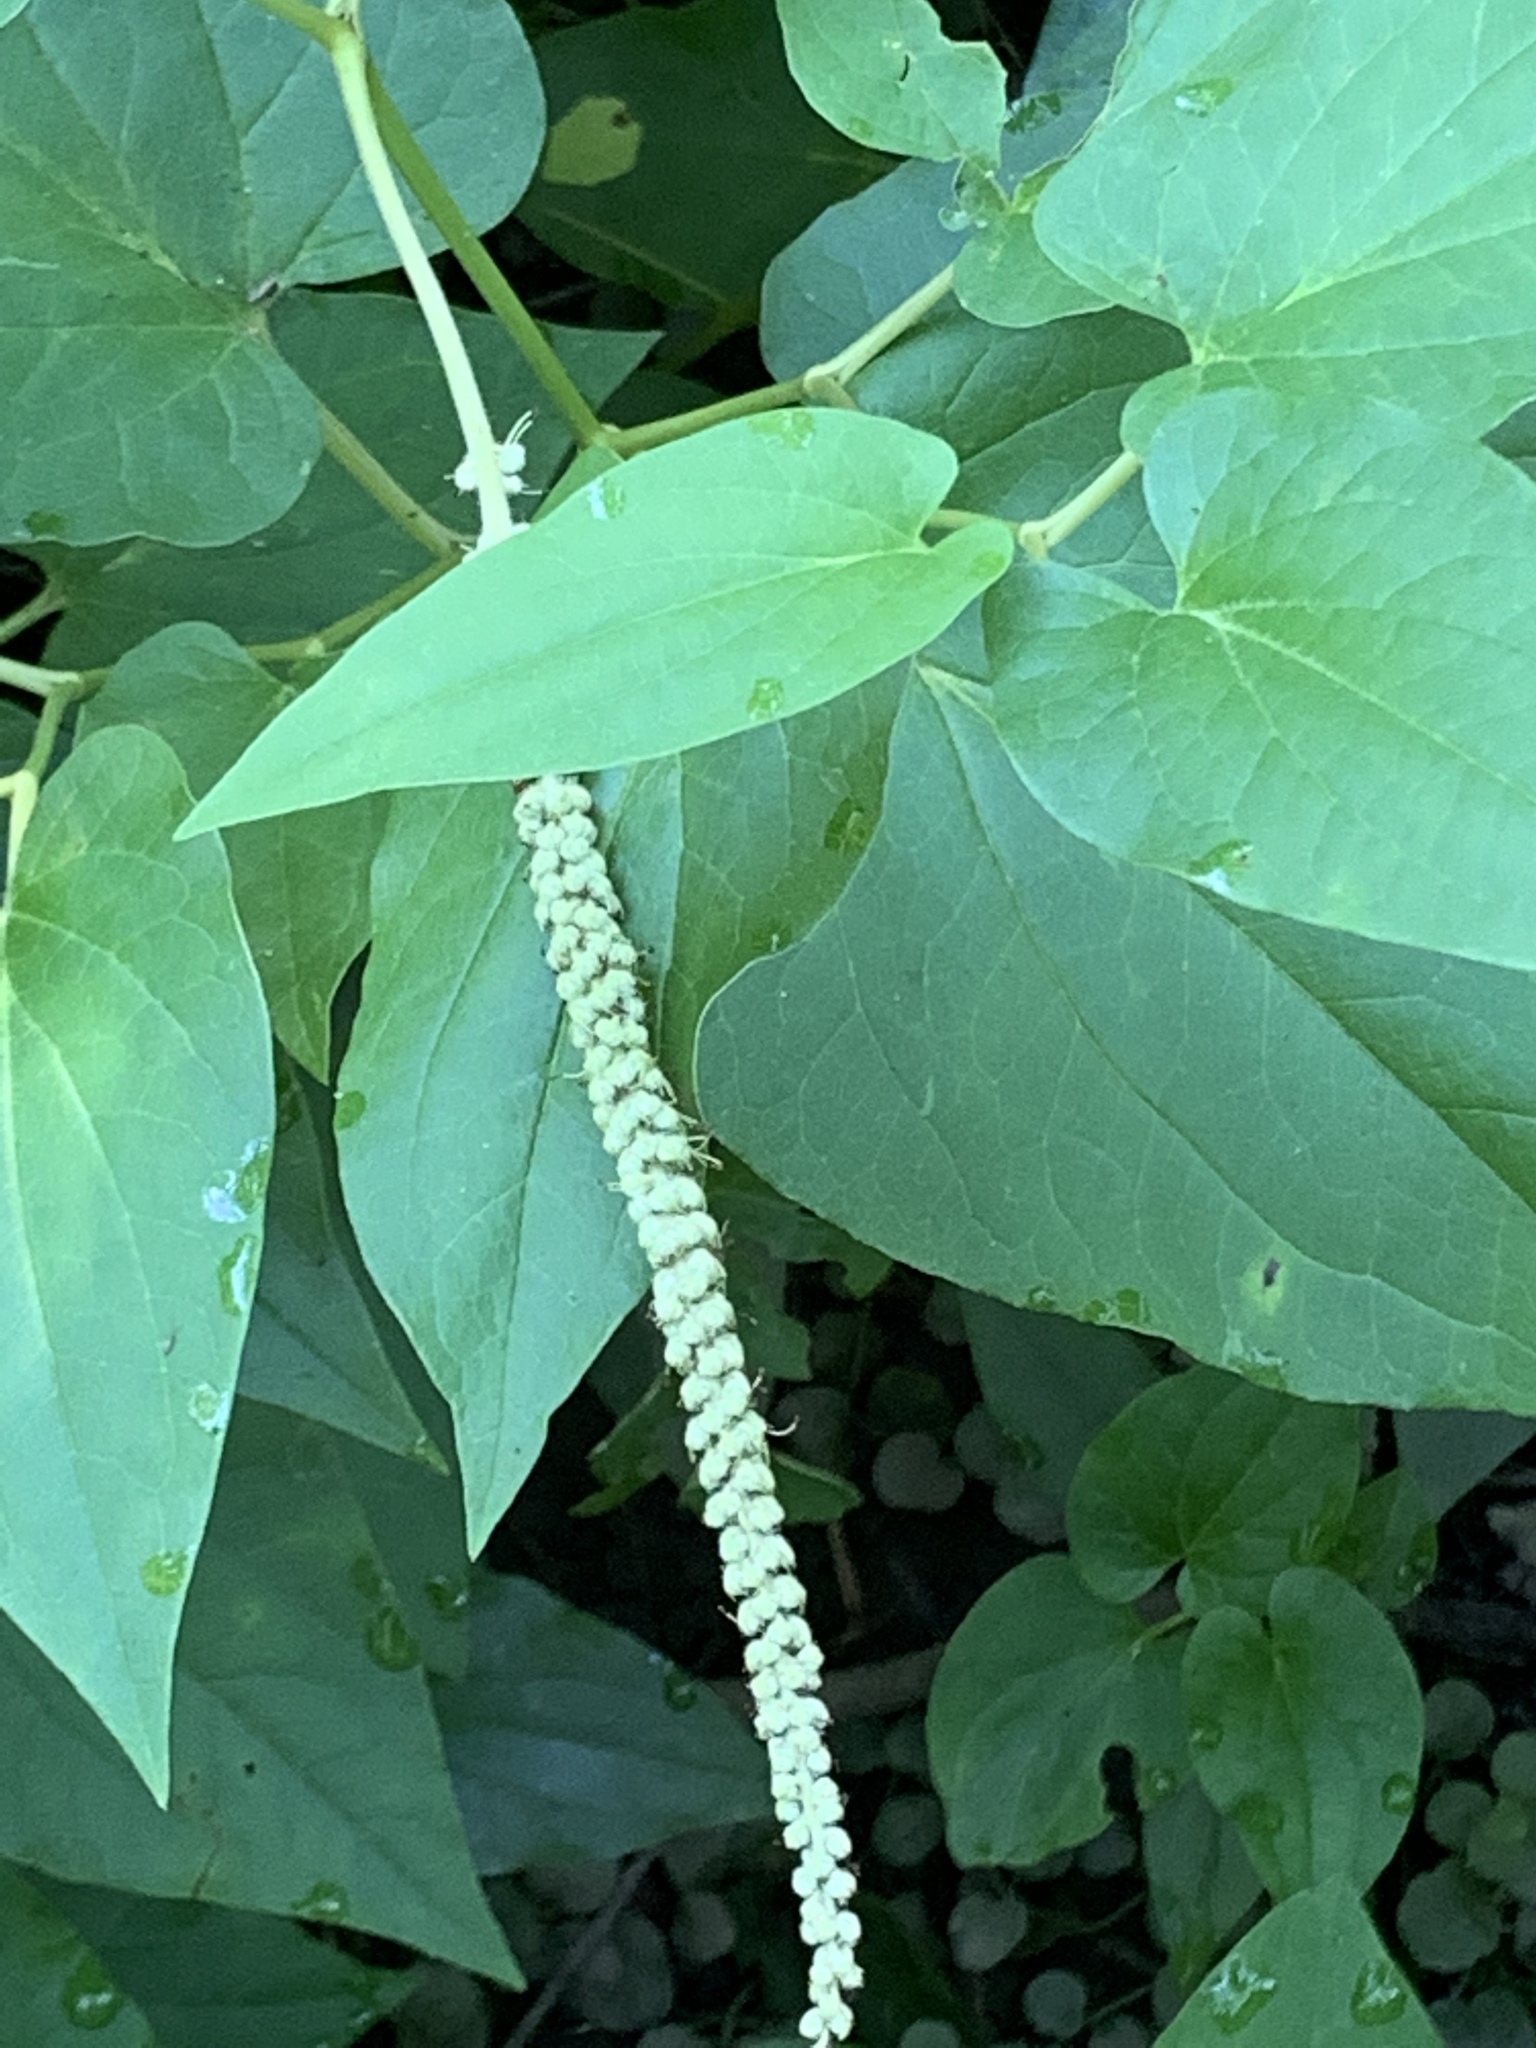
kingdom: Plantae
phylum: Tracheophyta
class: Magnoliopsida
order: Piperales
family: Saururaceae
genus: Saururus
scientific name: Saururus cernuus
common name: Lizard's-tail
